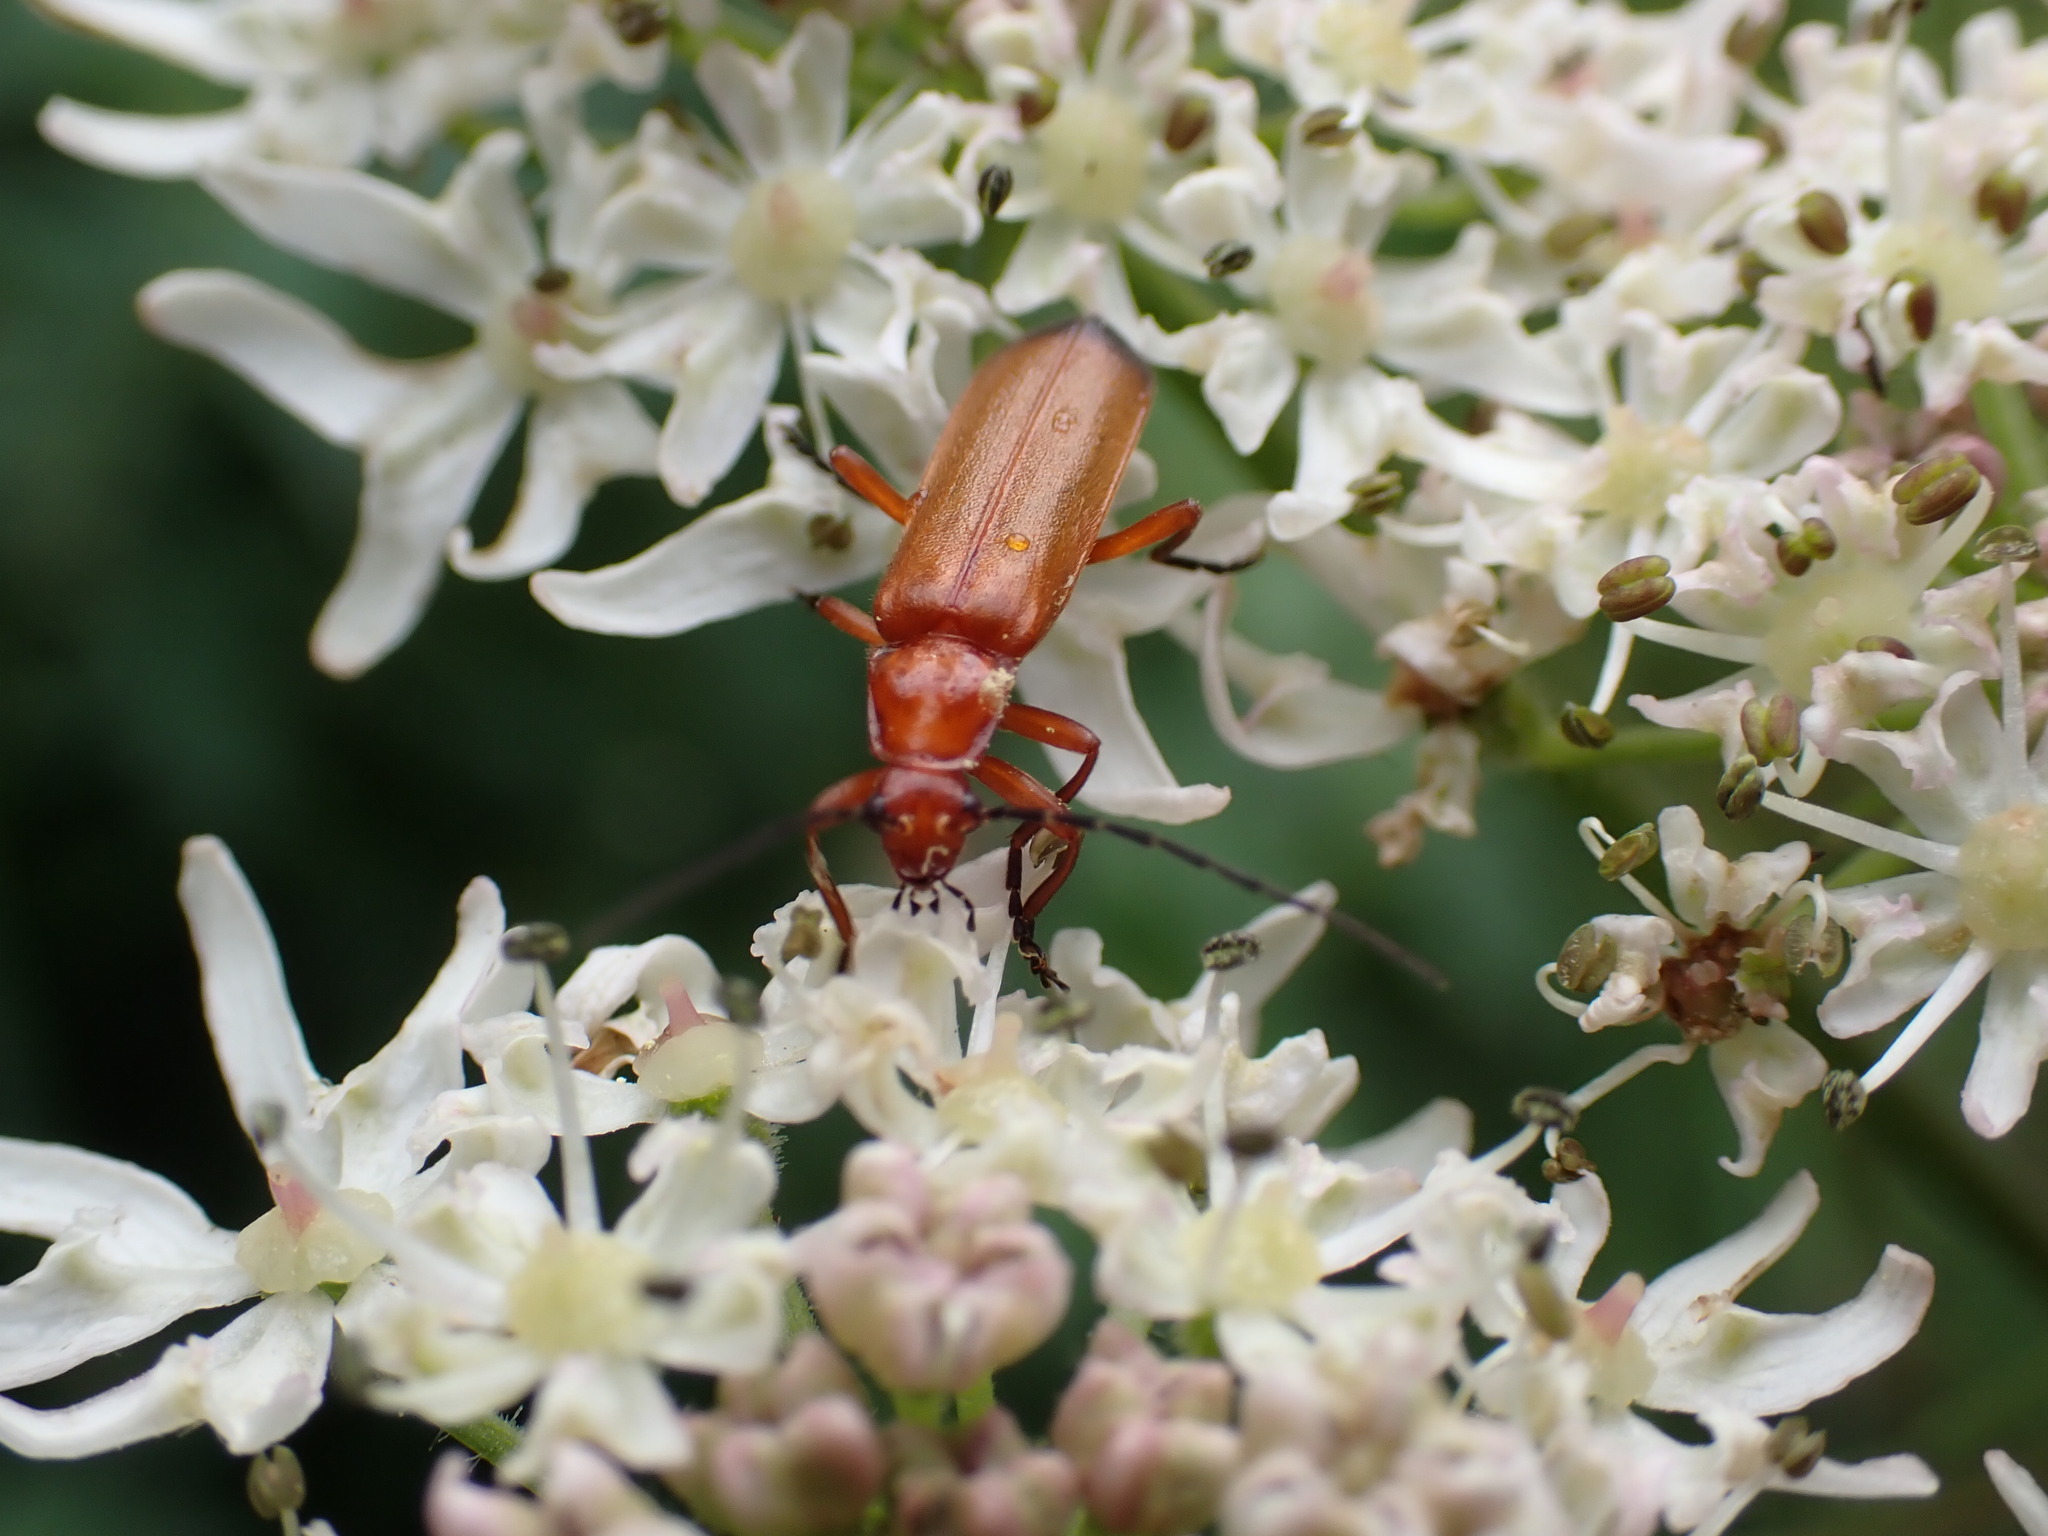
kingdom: Animalia
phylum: Arthropoda
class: Insecta
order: Coleoptera
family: Cantharidae
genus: Rhagonycha
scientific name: Rhagonycha fulva
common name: Common red soldier beetle
